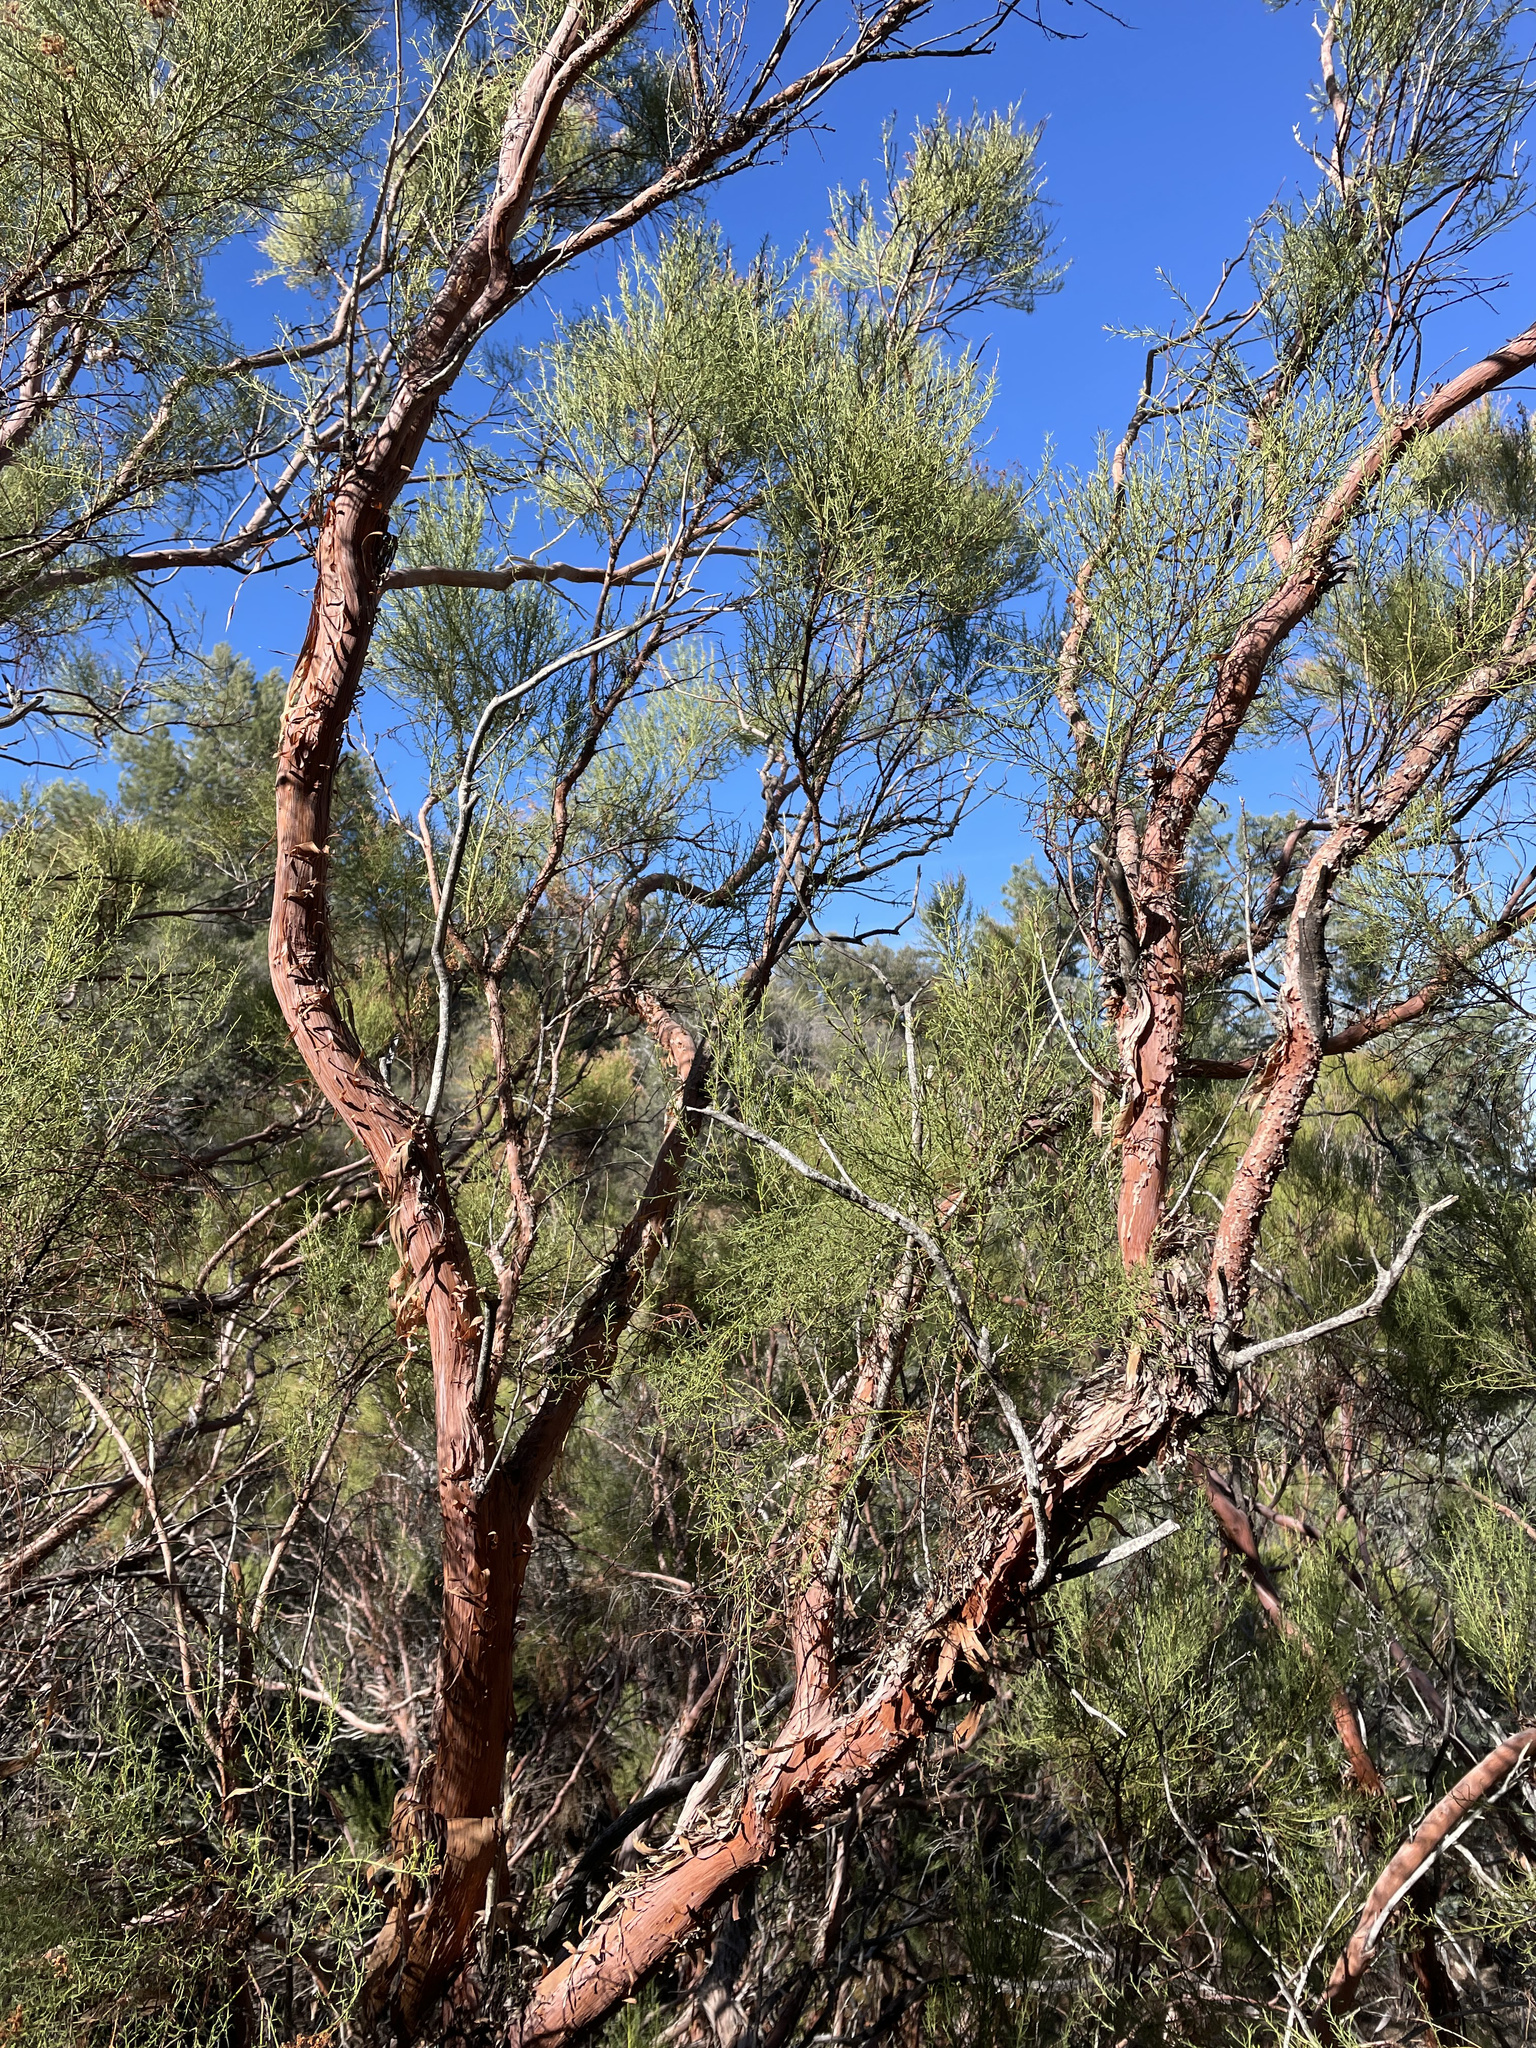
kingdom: Plantae
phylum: Tracheophyta
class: Magnoliopsida
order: Rosales
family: Rosaceae
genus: Adenostoma
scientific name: Adenostoma sparsifolium
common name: Red shank
